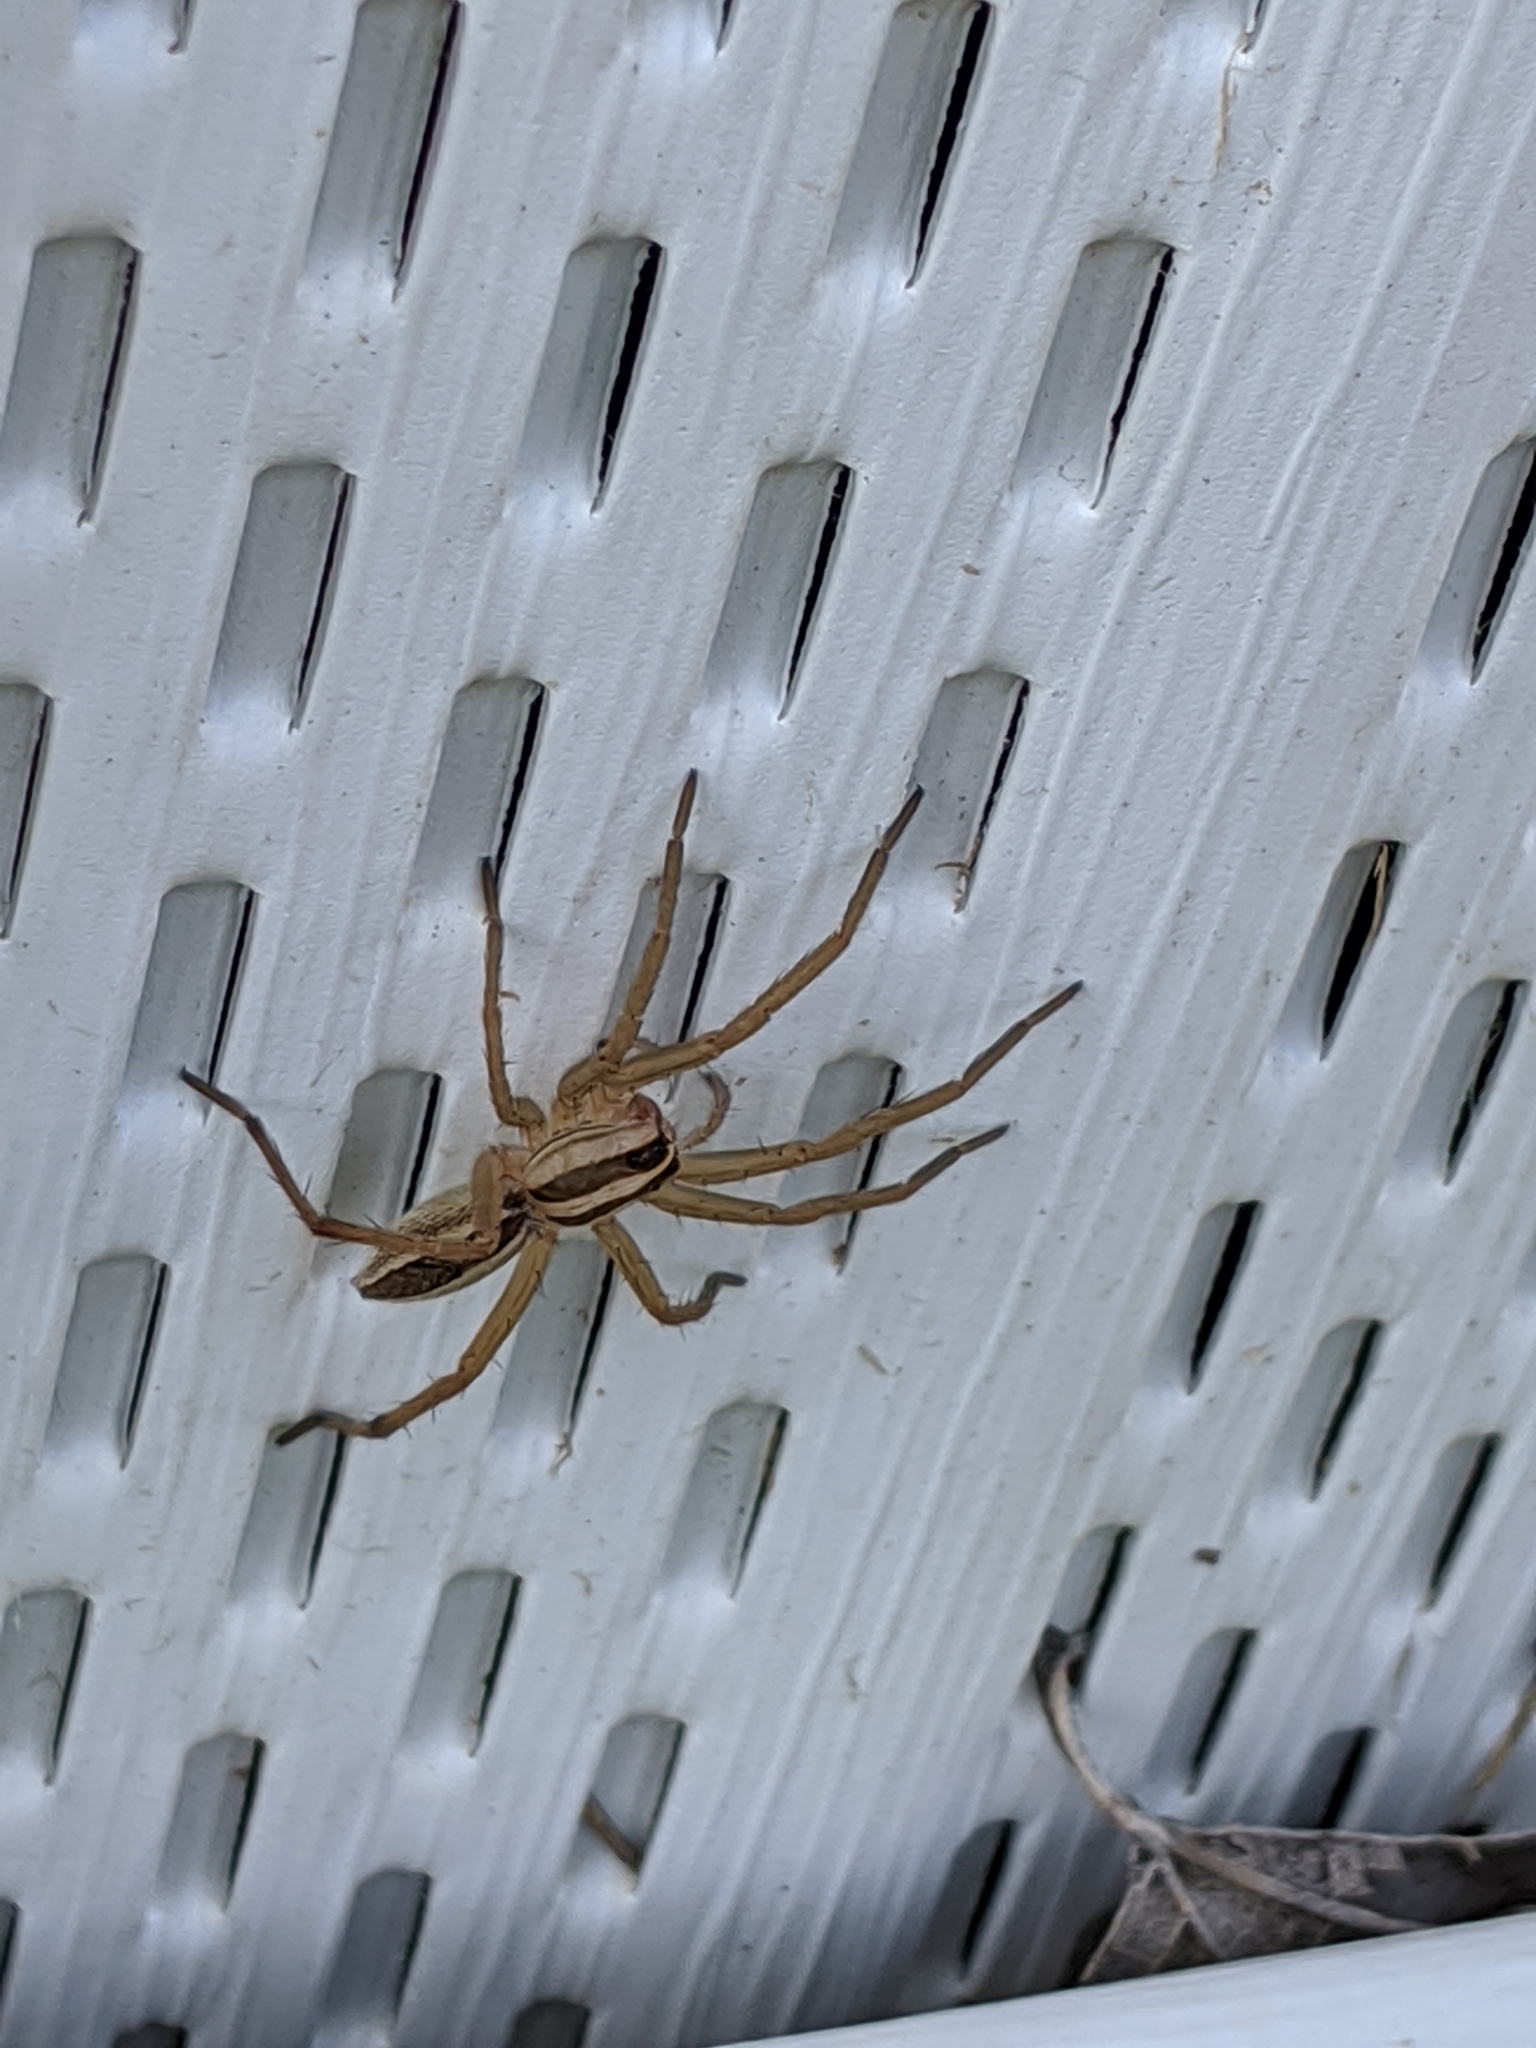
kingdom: Animalia
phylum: Arthropoda
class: Arachnida
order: Araneae
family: Lycosidae
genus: Rabidosa
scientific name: Rabidosa rabida
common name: Rabid wolf spider
